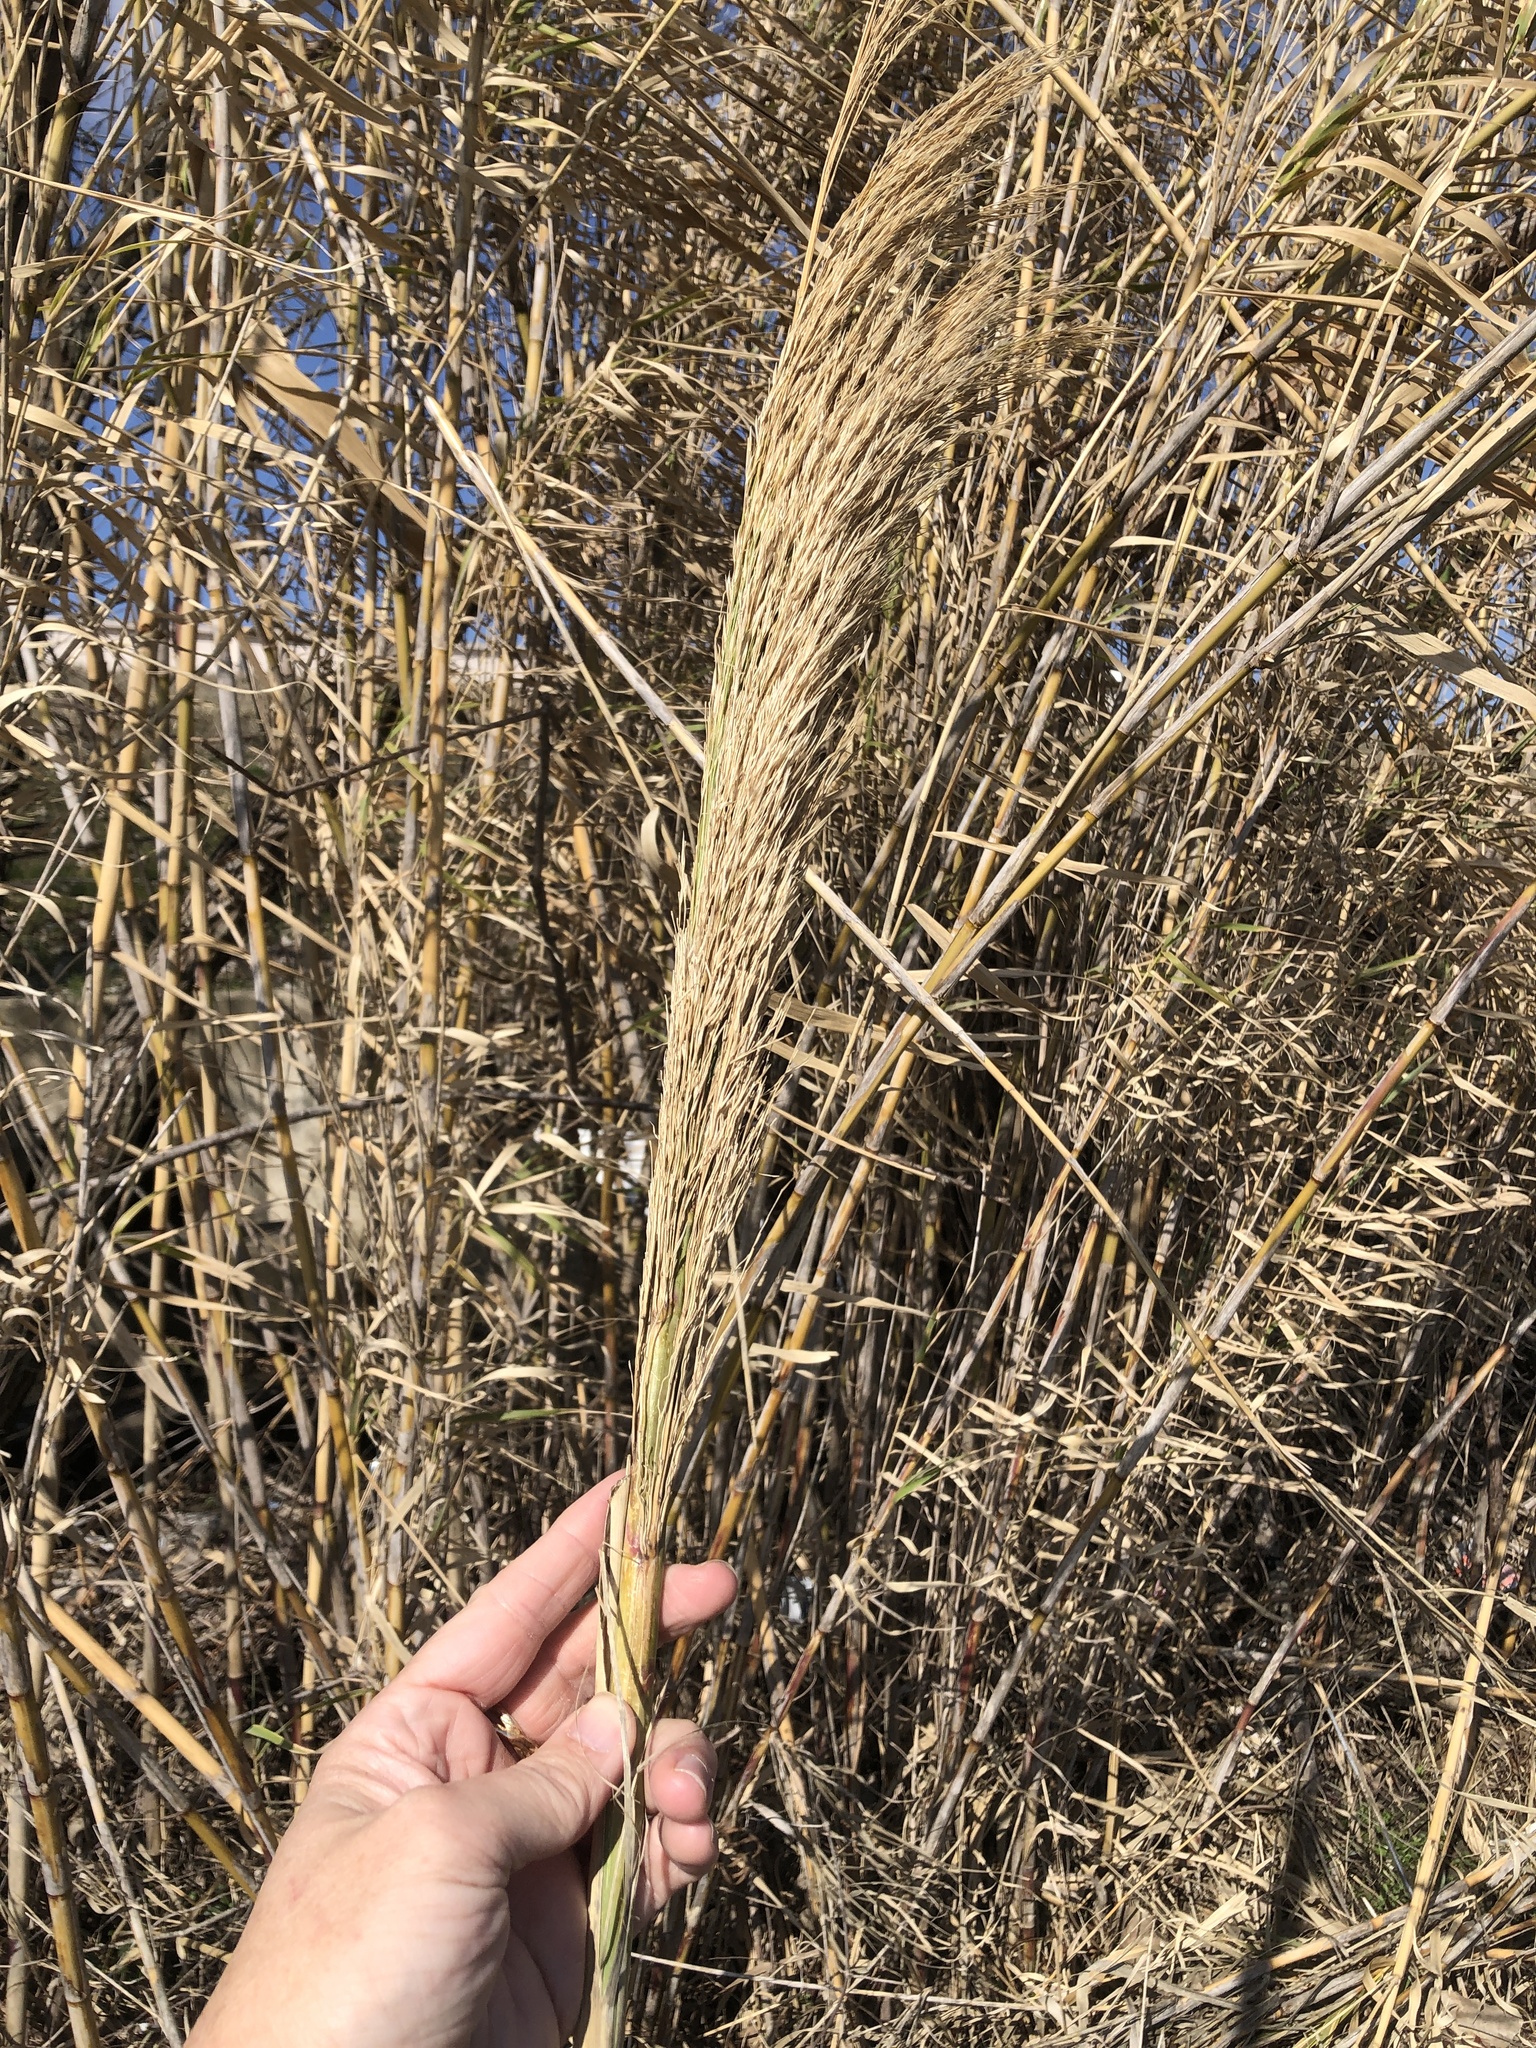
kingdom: Plantae
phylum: Tracheophyta
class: Liliopsida
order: Poales
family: Poaceae
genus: Arundo
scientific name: Arundo donax
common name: Giant reed
